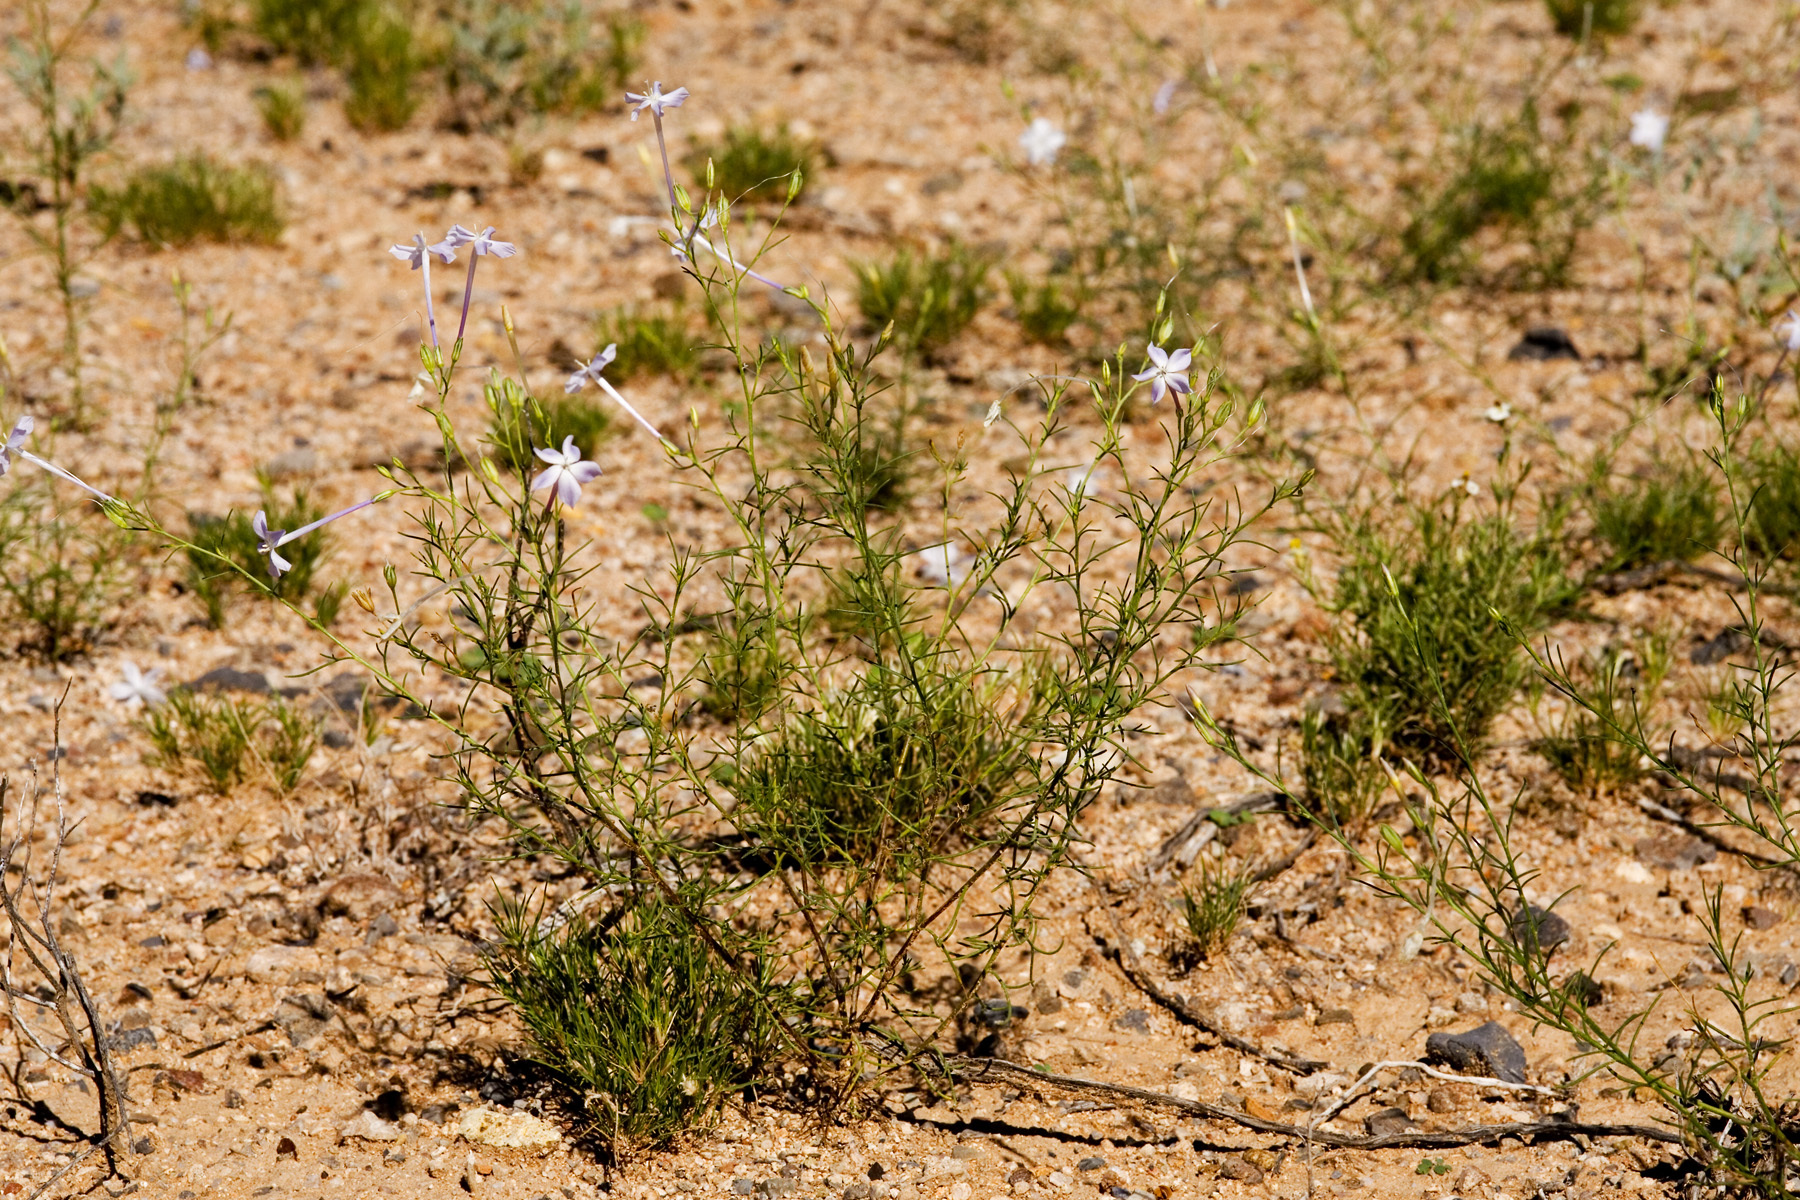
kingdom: Plantae
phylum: Tracheophyta
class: Magnoliopsida
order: Ericales
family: Polemoniaceae
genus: Ipomopsis
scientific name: Ipomopsis longiflora
